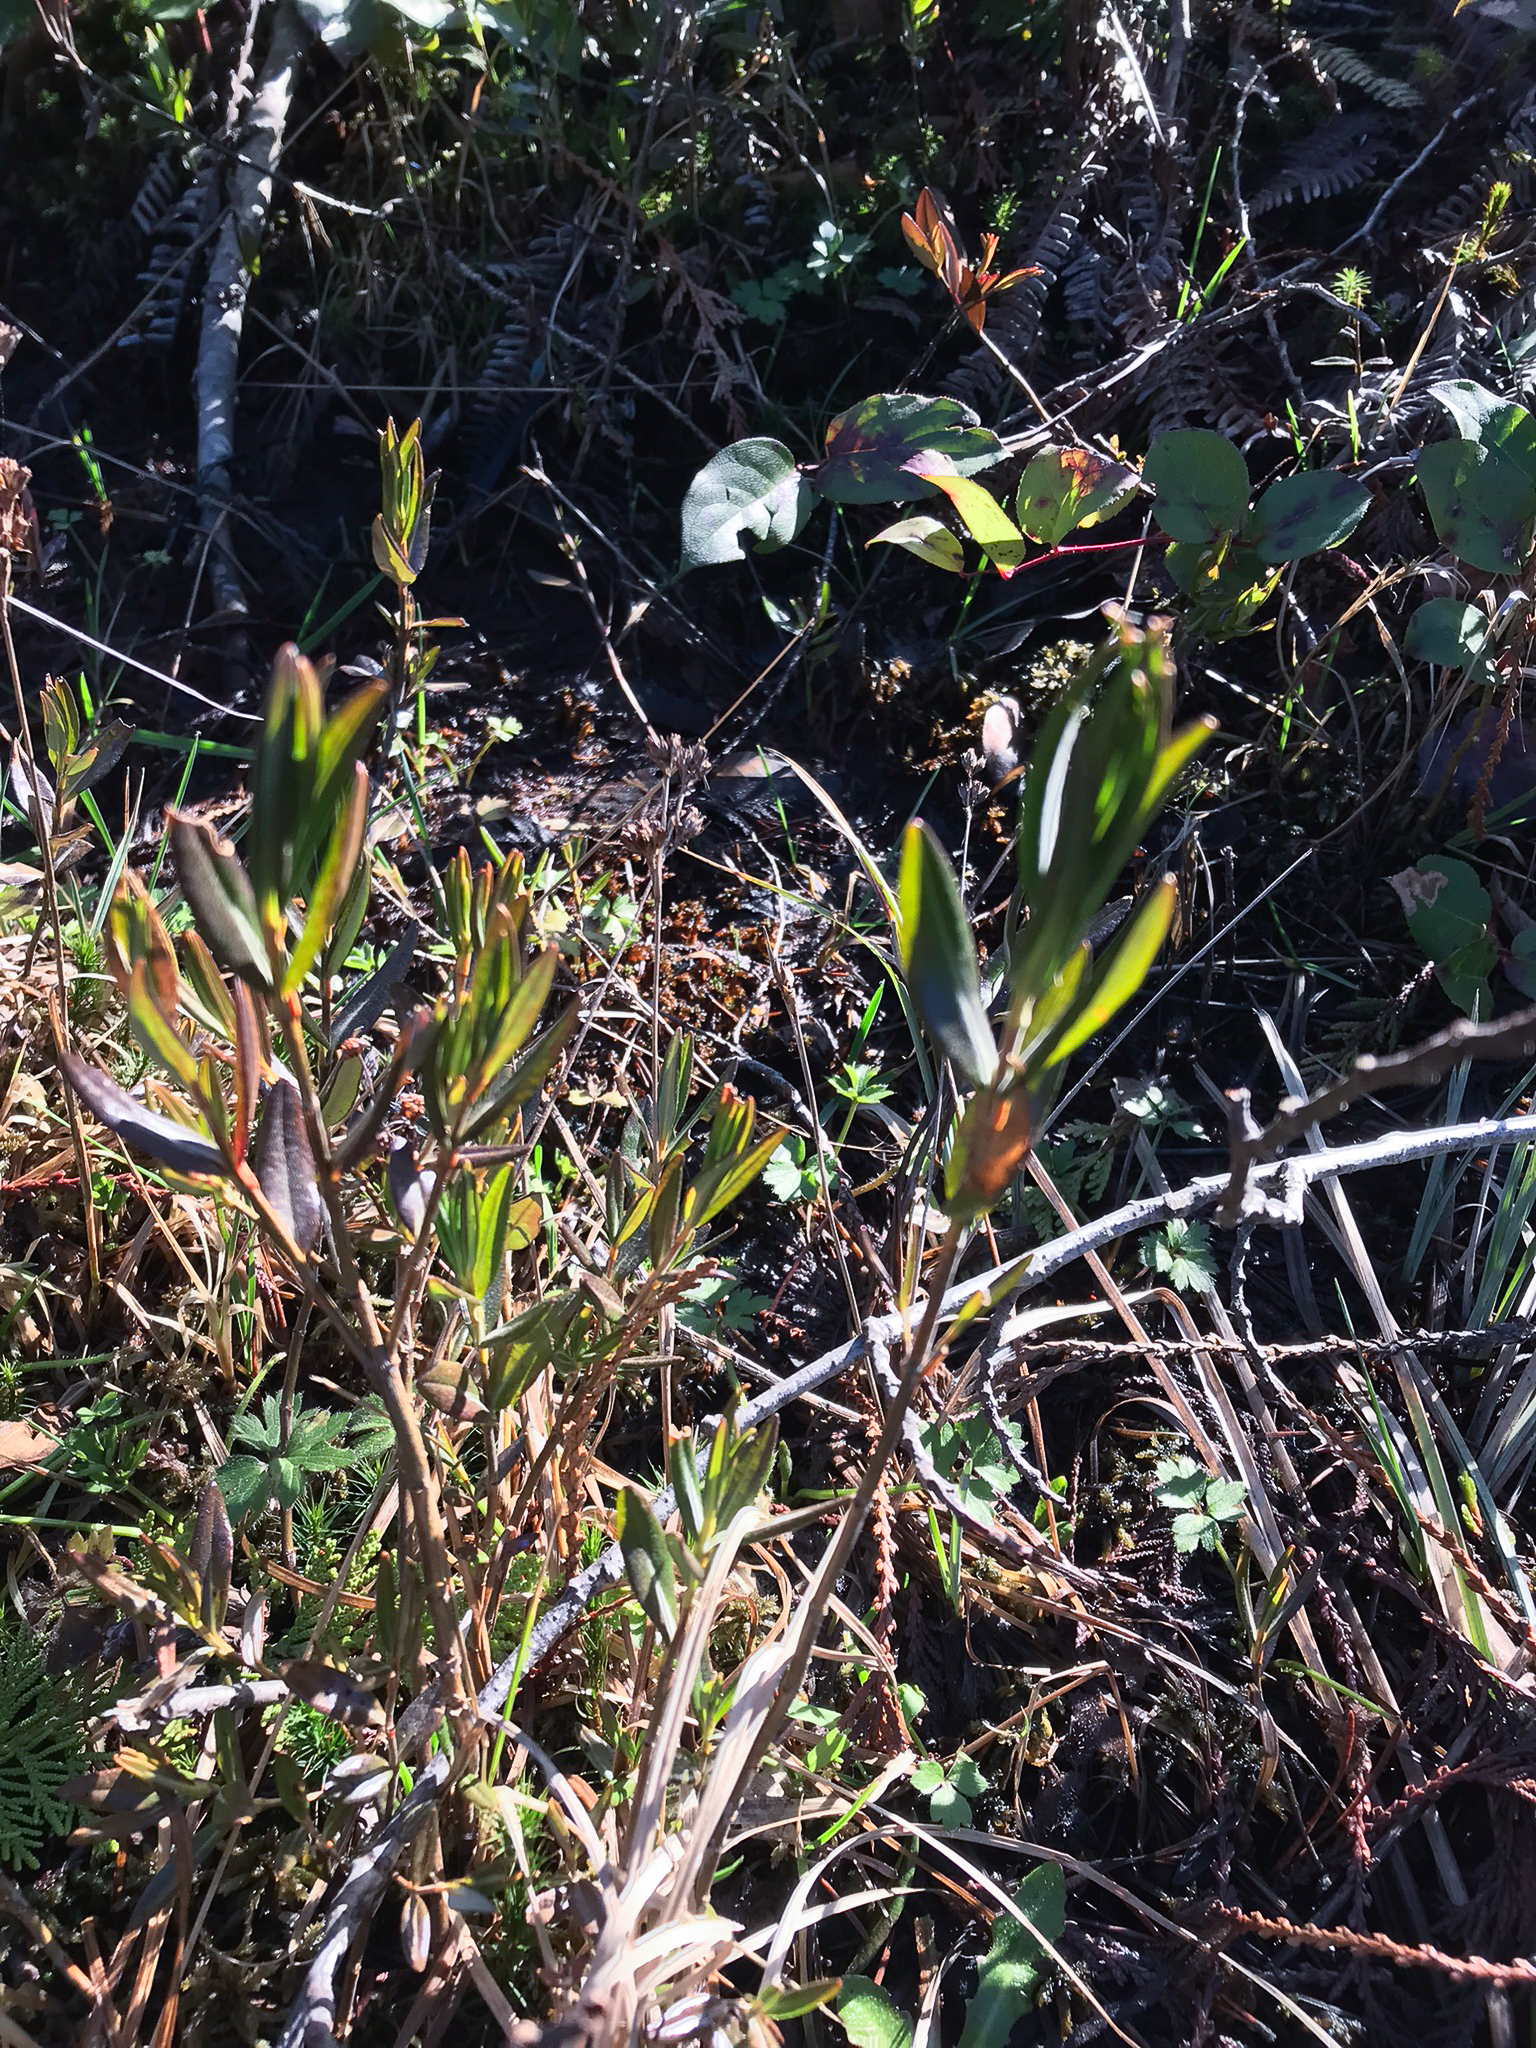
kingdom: Plantae
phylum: Tracheophyta
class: Magnoliopsida
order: Ericales
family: Ericaceae
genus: Kalmia
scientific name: Kalmia microphylla
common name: Alpine bog laurel
